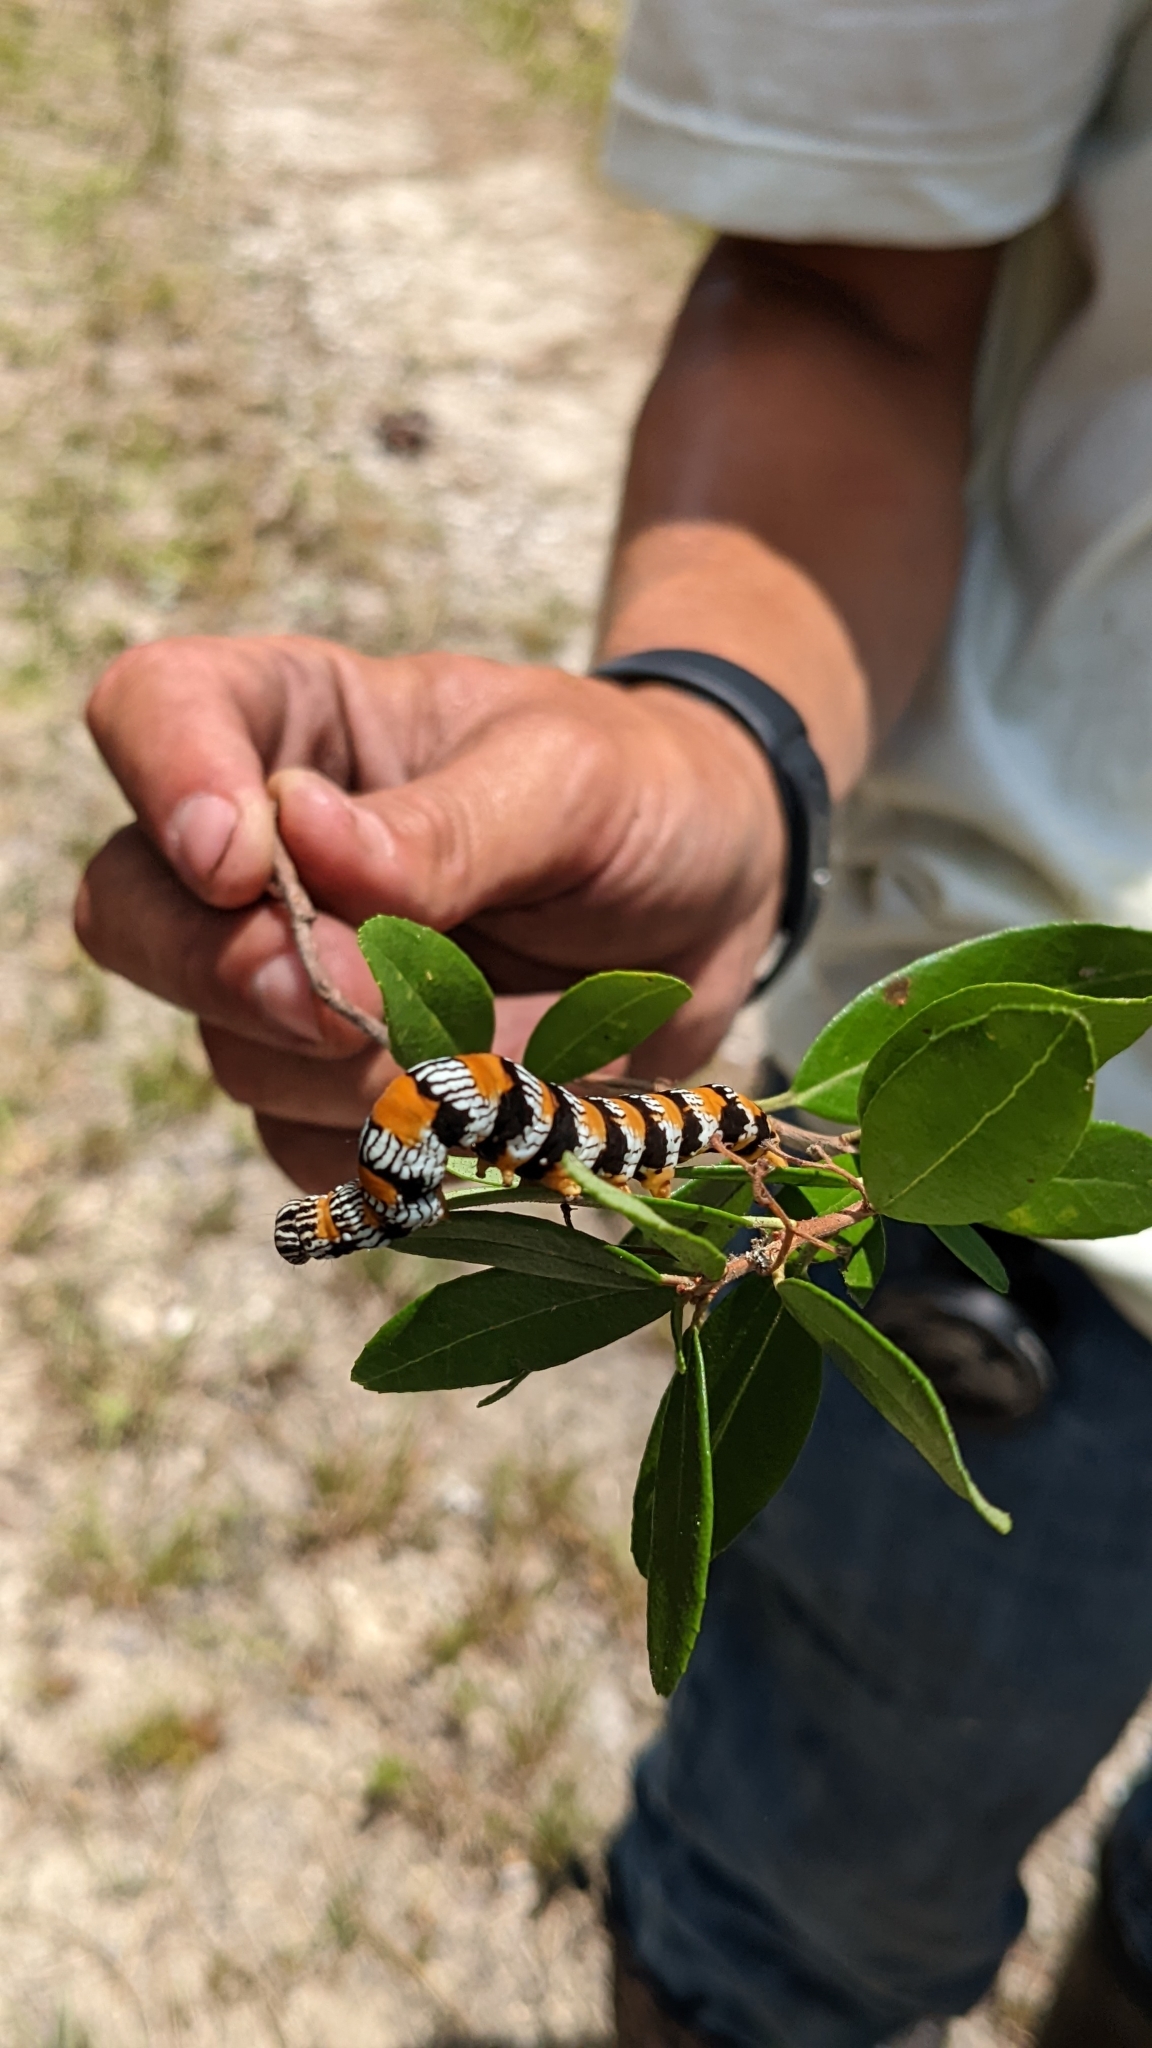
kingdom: Animalia
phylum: Arthropoda
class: Insecta
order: Lepidoptera
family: Erebidae
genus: Zale
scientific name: Zale perculta
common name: Okefenokee zale moth
